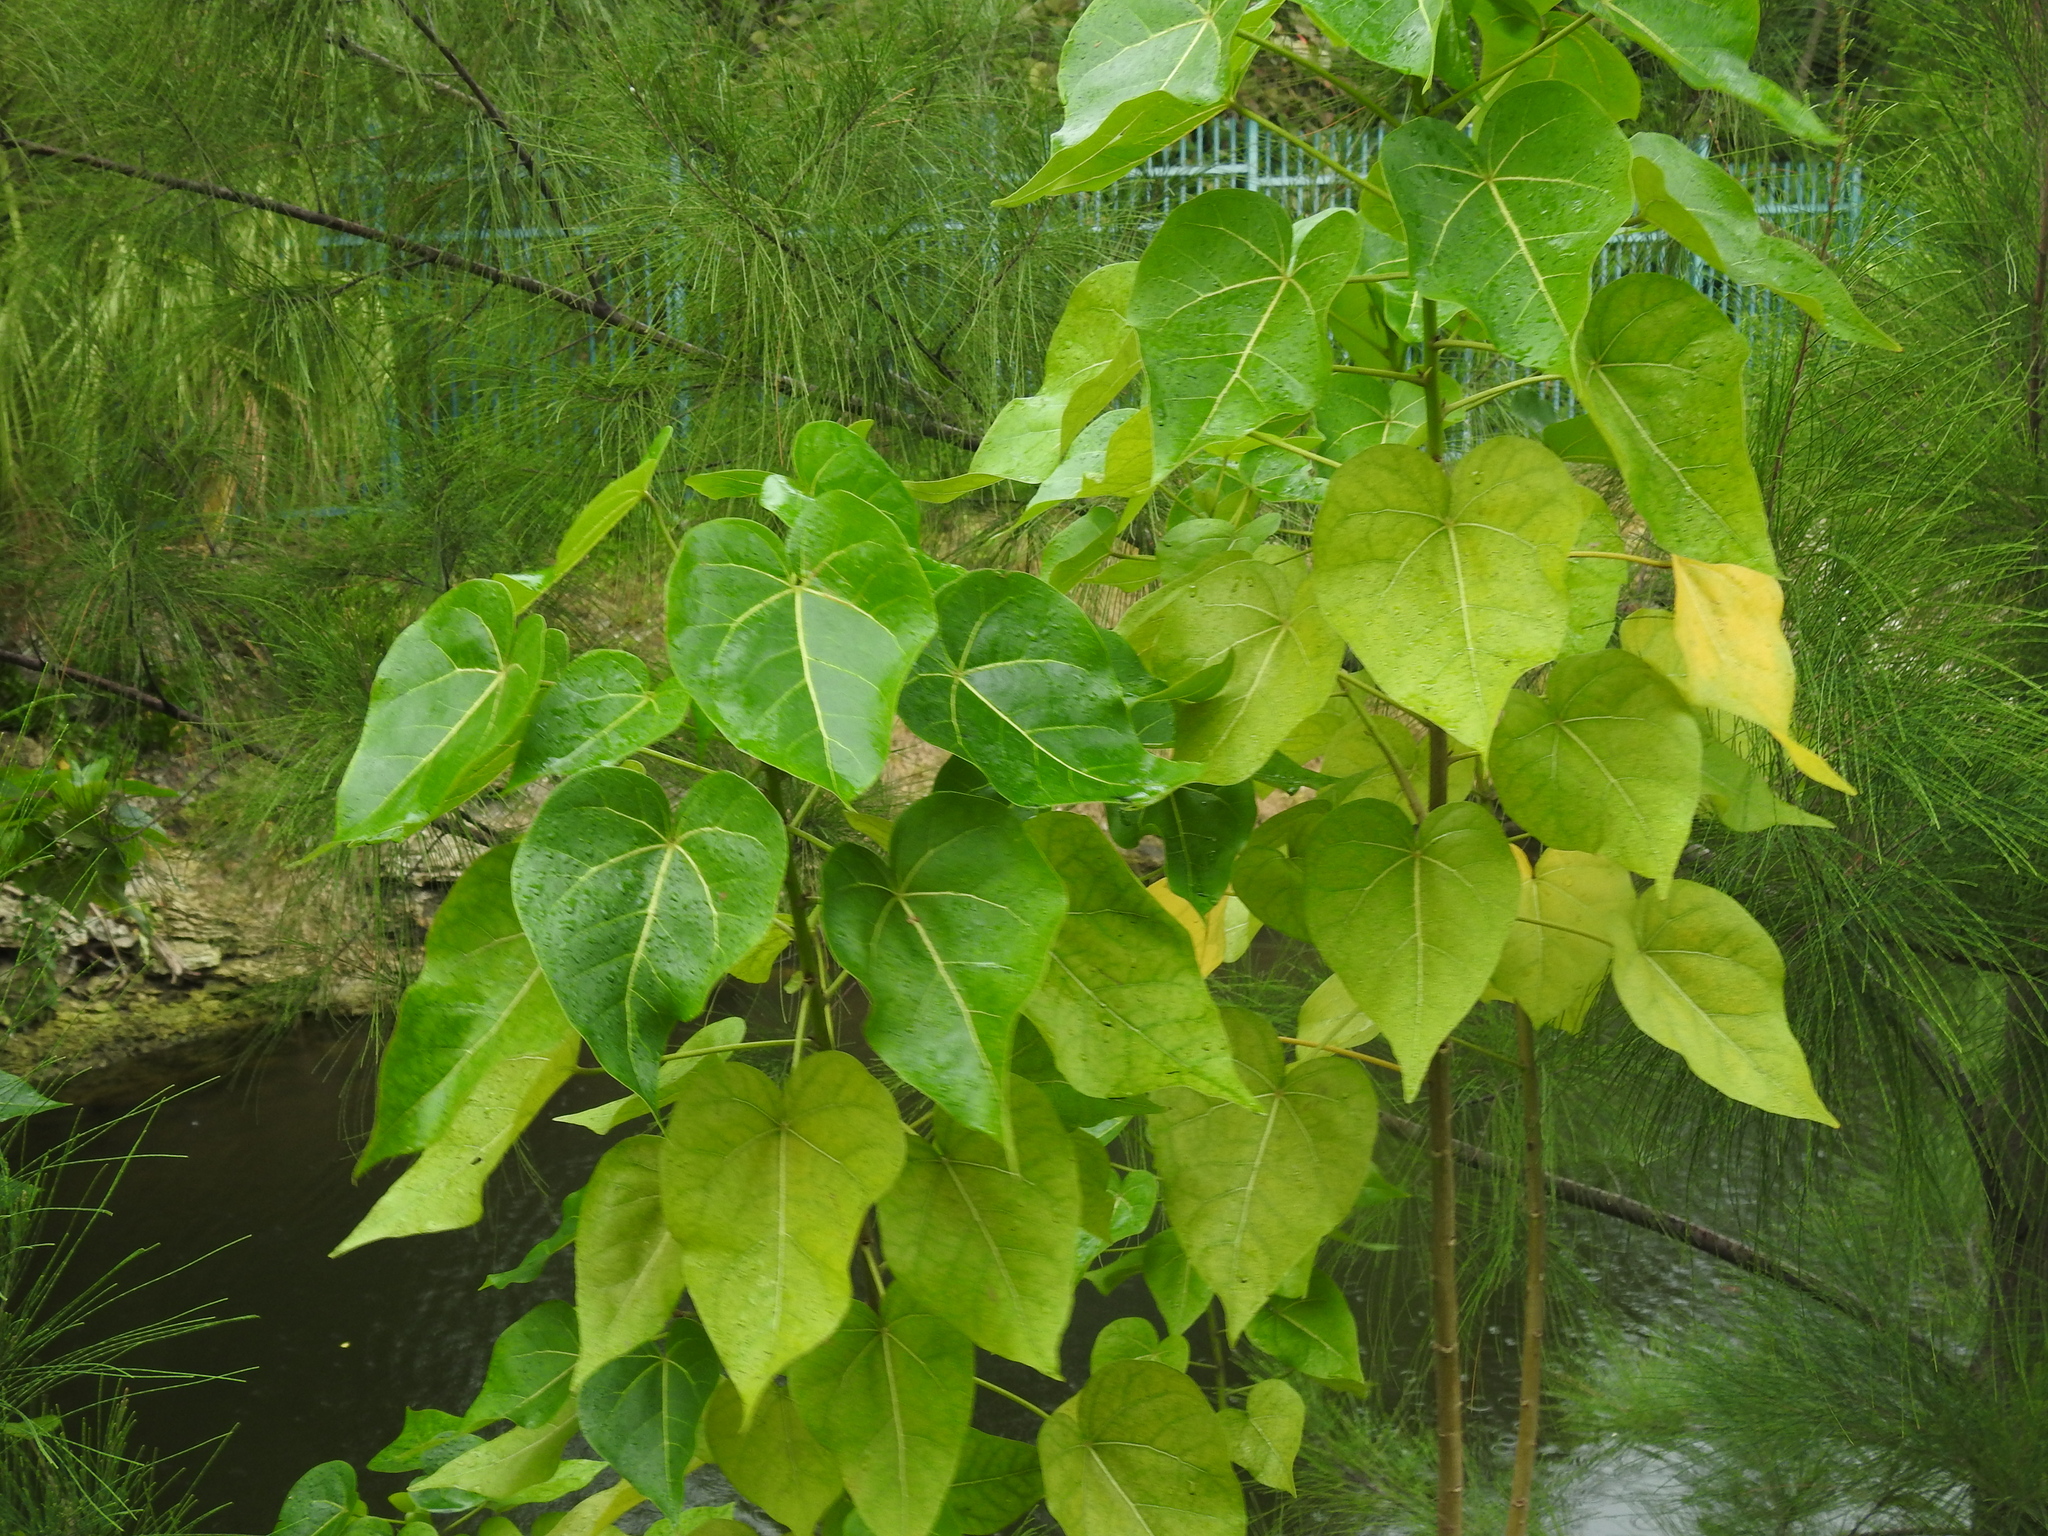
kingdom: Plantae
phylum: Tracheophyta
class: Magnoliopsida
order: Malvales
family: Malvaceae
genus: Thespesia
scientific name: Thespesia populnea
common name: Seaside mahoe
